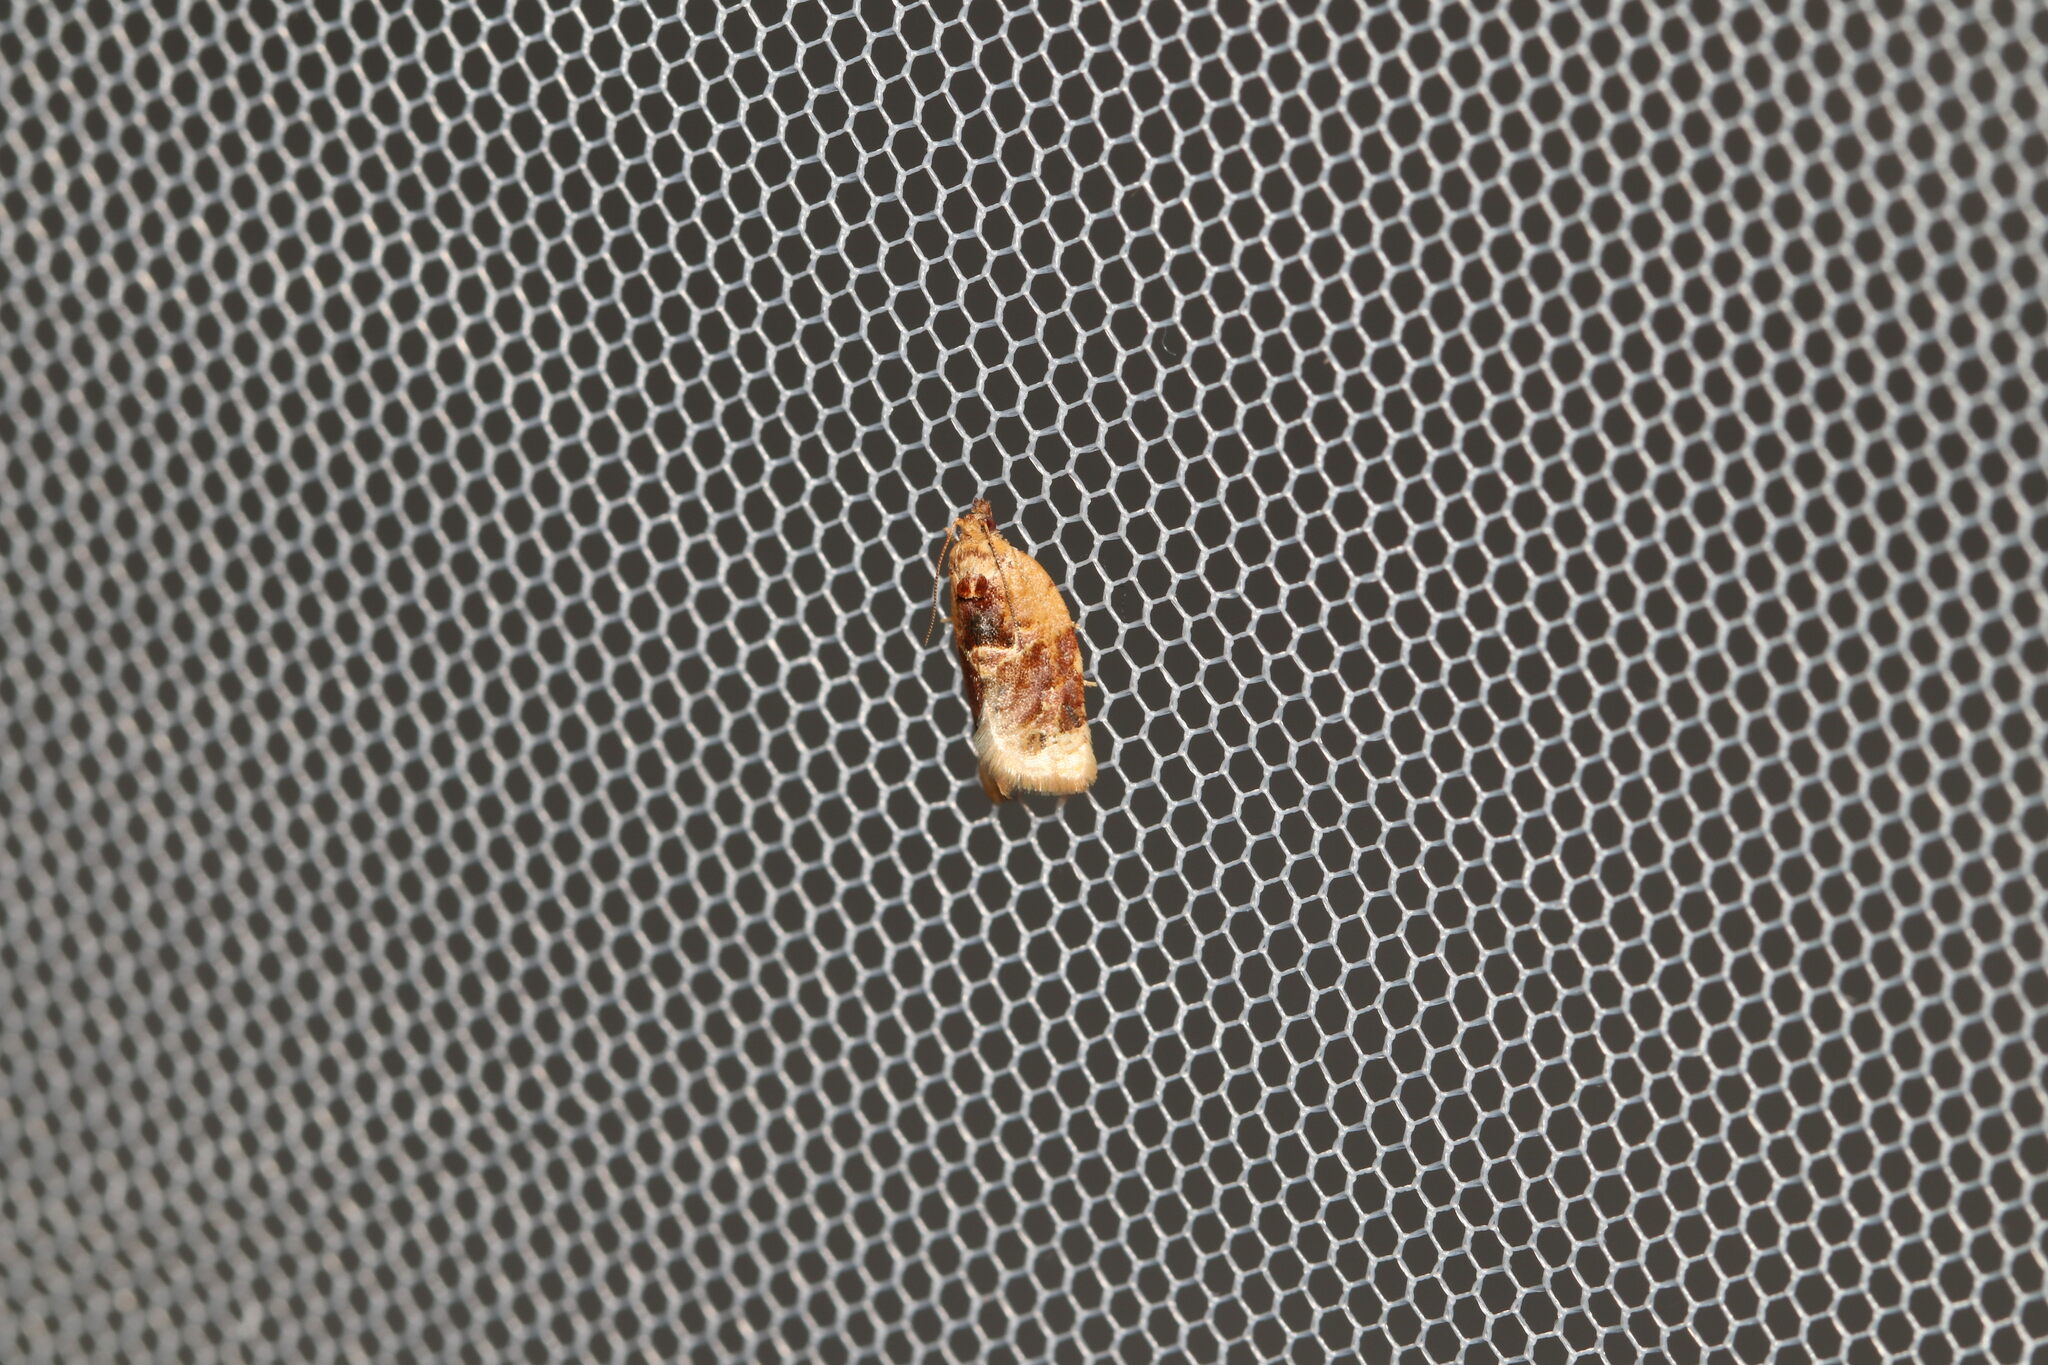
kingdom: Animalia
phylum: Arthropoda
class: Insecta
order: Lepidoptera
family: Tortricidae
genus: Argyrotaenia
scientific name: Argyrotaenia velutinana
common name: Red-banded leafroller moth
